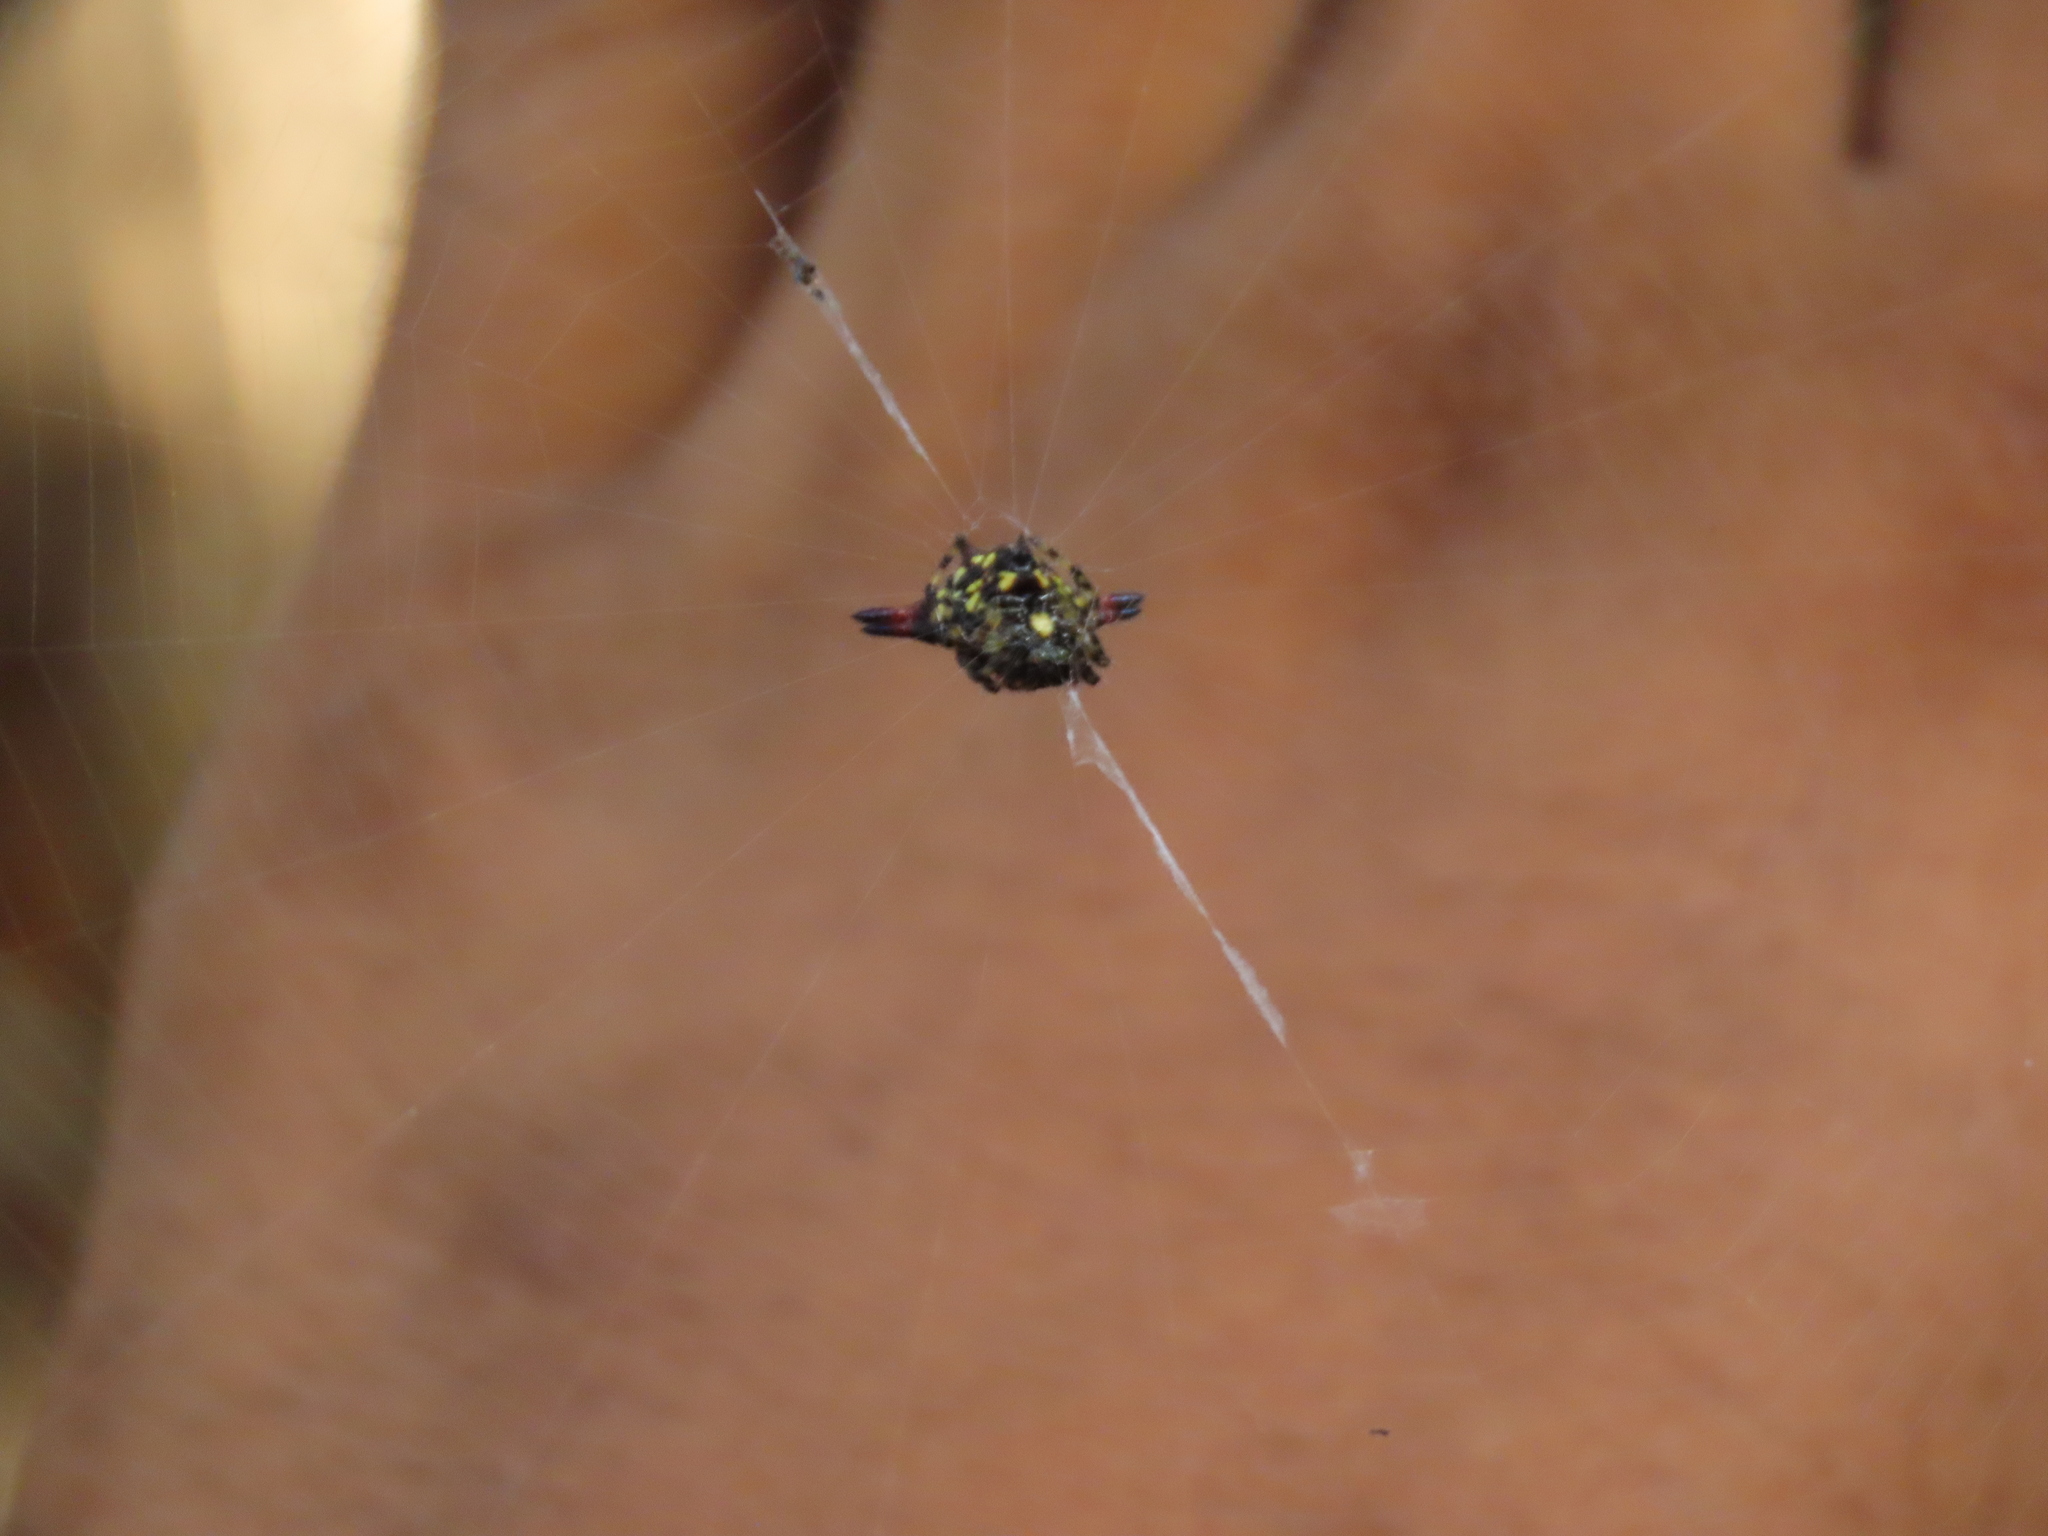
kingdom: Animalia
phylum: Arthropoda
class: Arachnida
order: Araneae
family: Araneidae
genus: Gasteracantha
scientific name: Gasteracantha geminata
